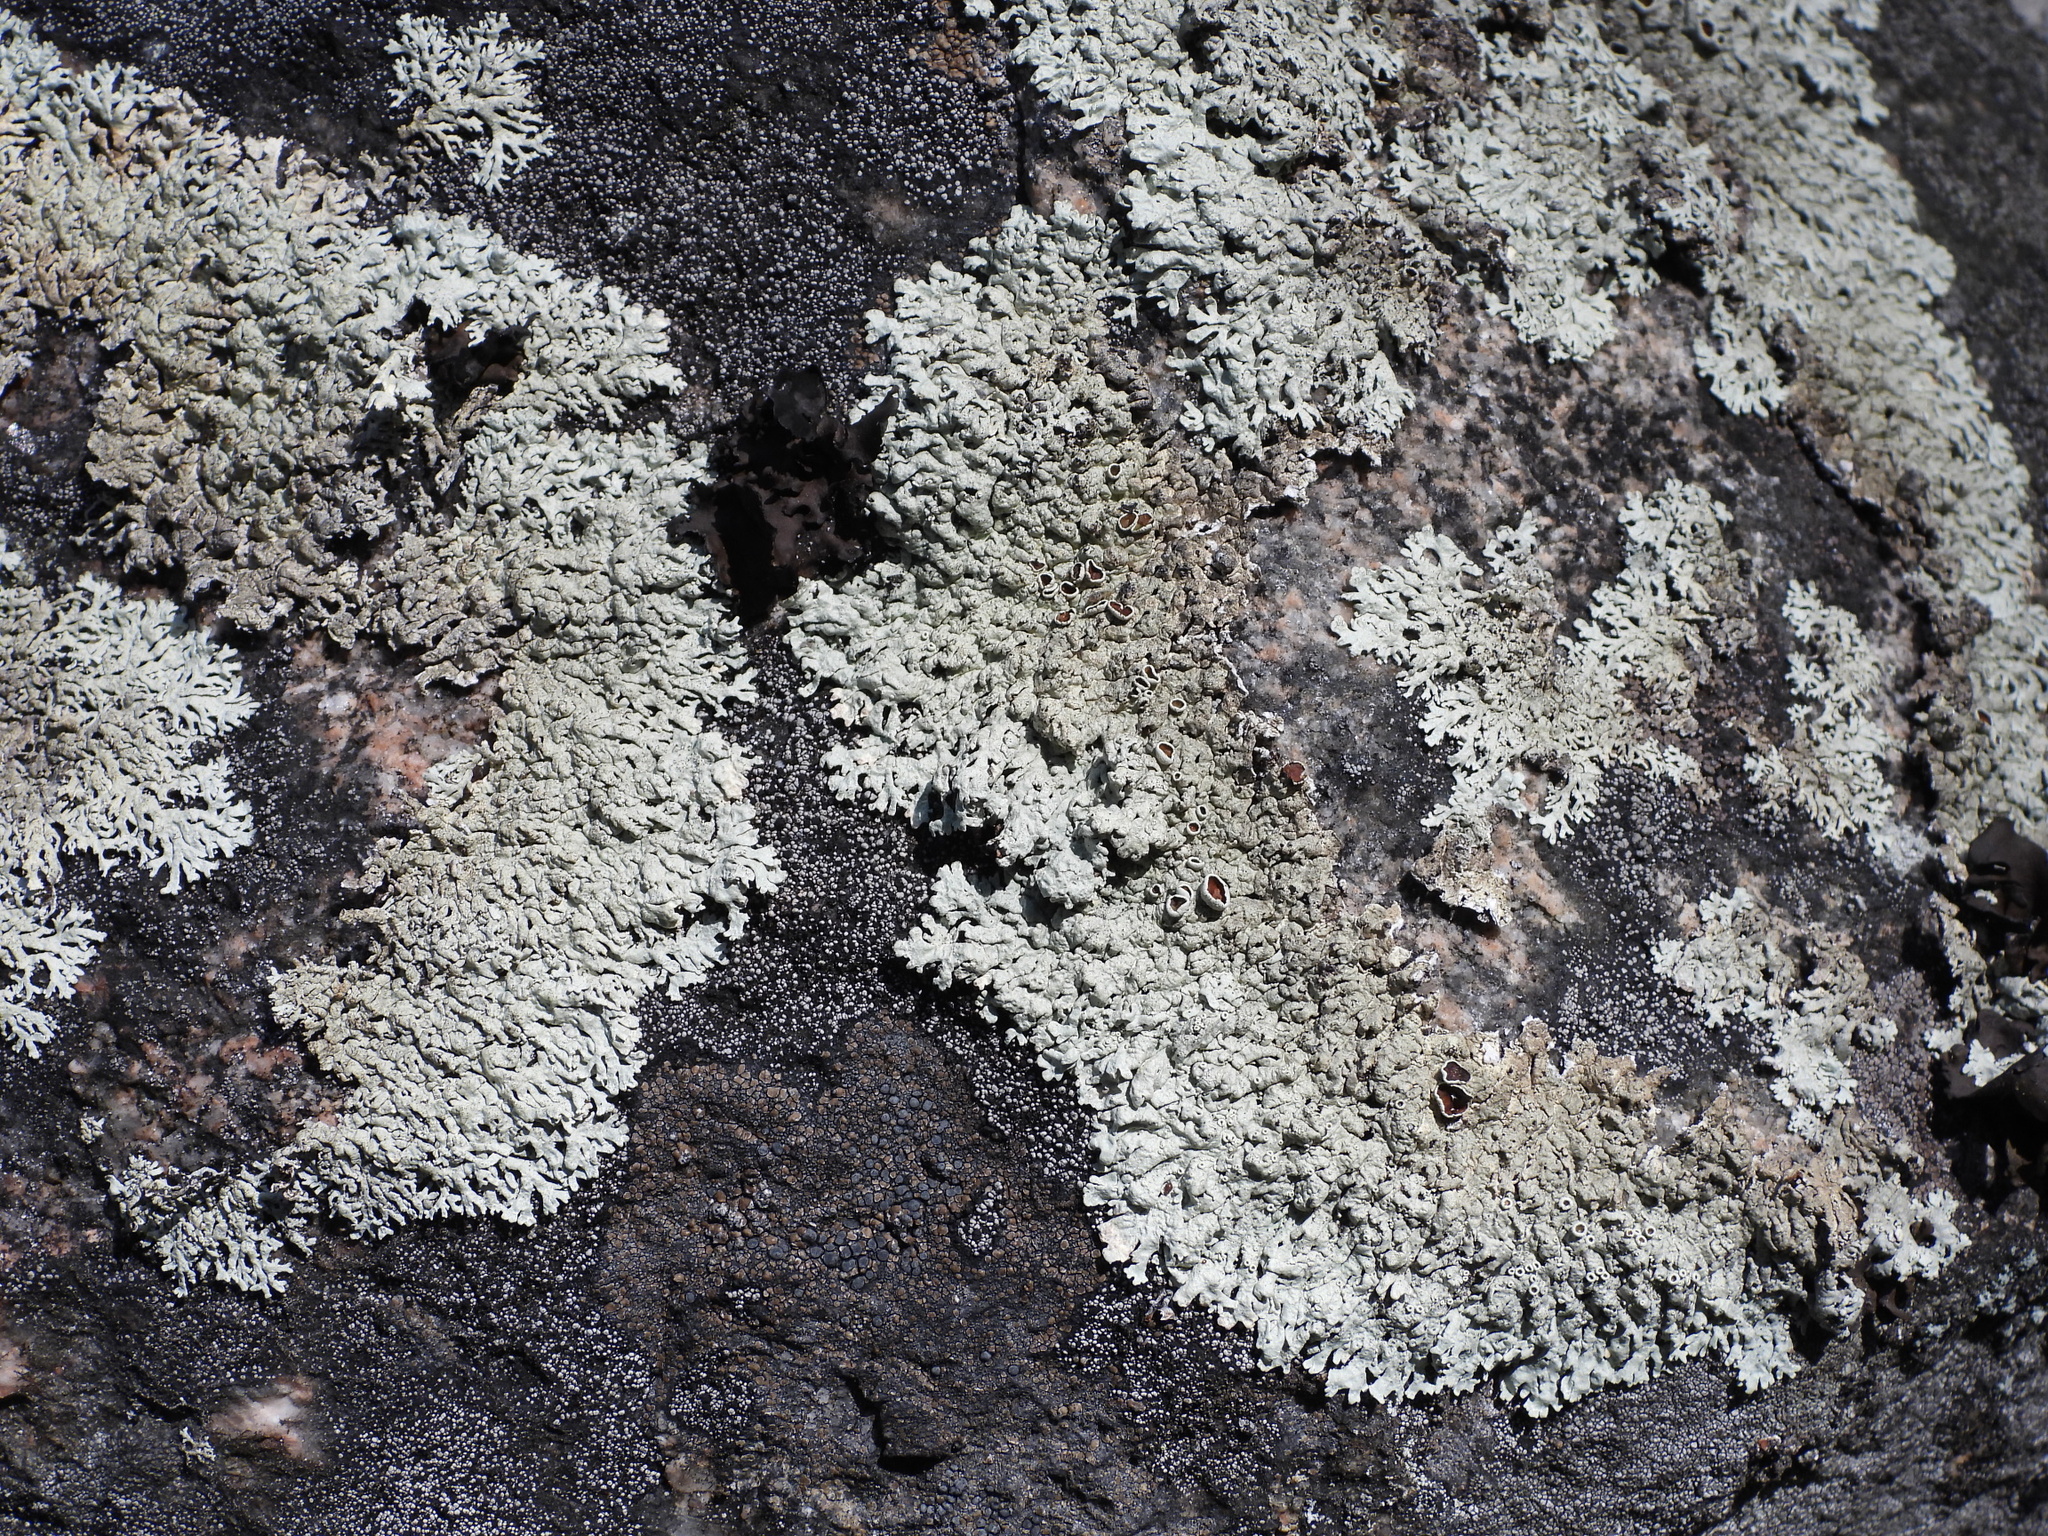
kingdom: Fungi
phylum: Ascomycota
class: Lecanoromycetes
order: Lecanorales
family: Parmeliaceae
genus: Arctoparmelia
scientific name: Arctoparmelia centrifuga
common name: Concentric ring lichen
